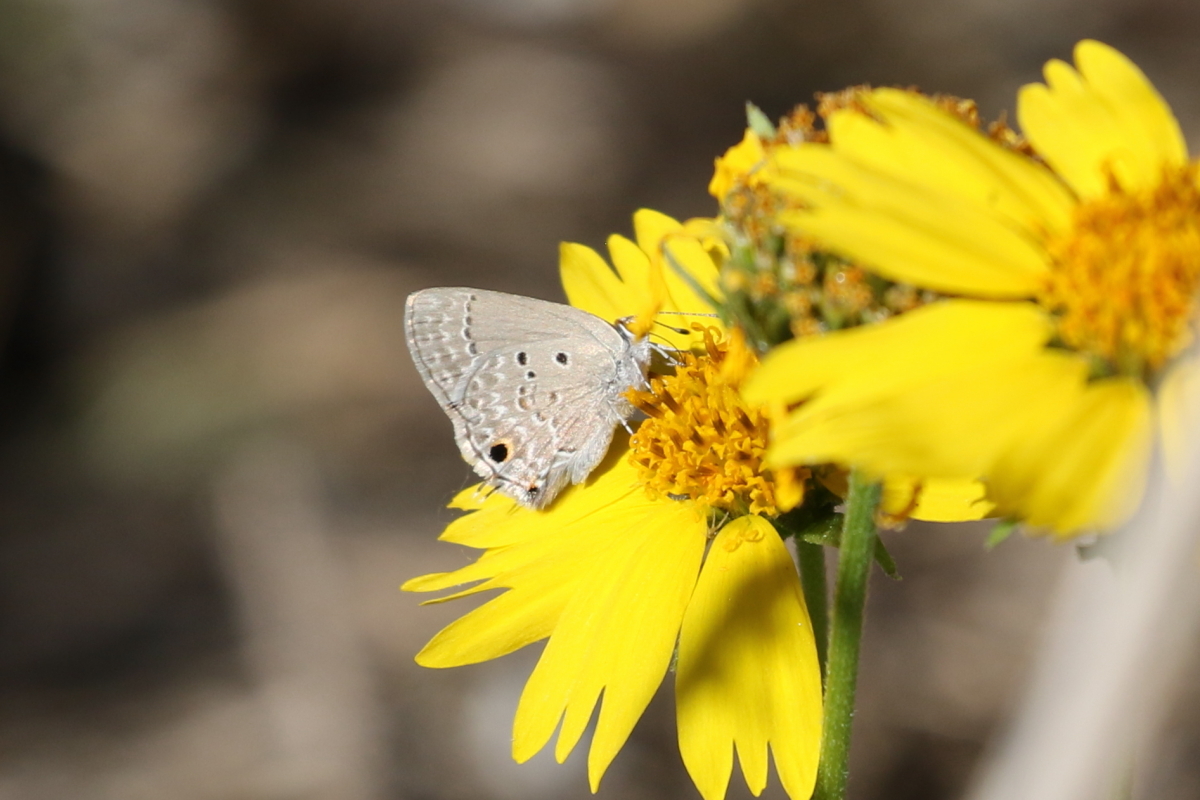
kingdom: Animalia
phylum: Arthropoda
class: Insecta
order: Lepidoptera
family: Lycaenidae
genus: Callicista
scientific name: Callicista columella
